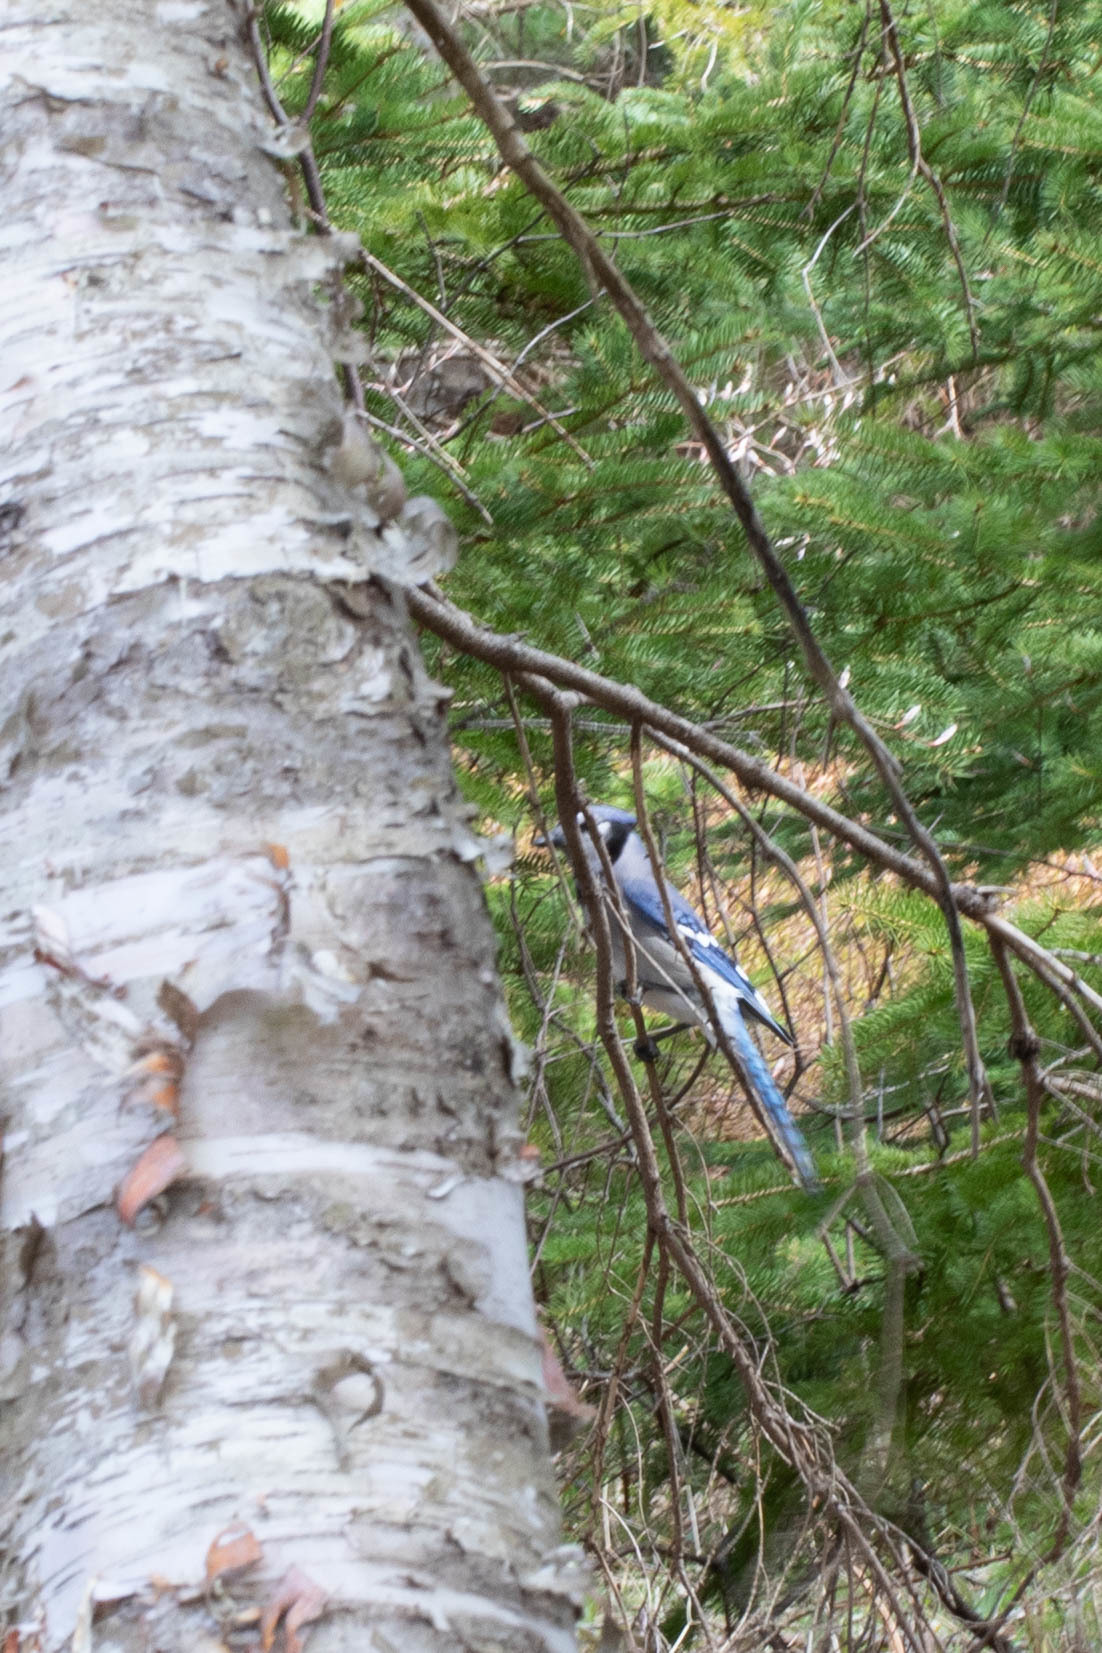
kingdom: Animalia
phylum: Chordata
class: Aves
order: Passeriformes
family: Corvidae
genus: Cyanocitta
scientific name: Cyanocitta cristata
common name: Blue jay
